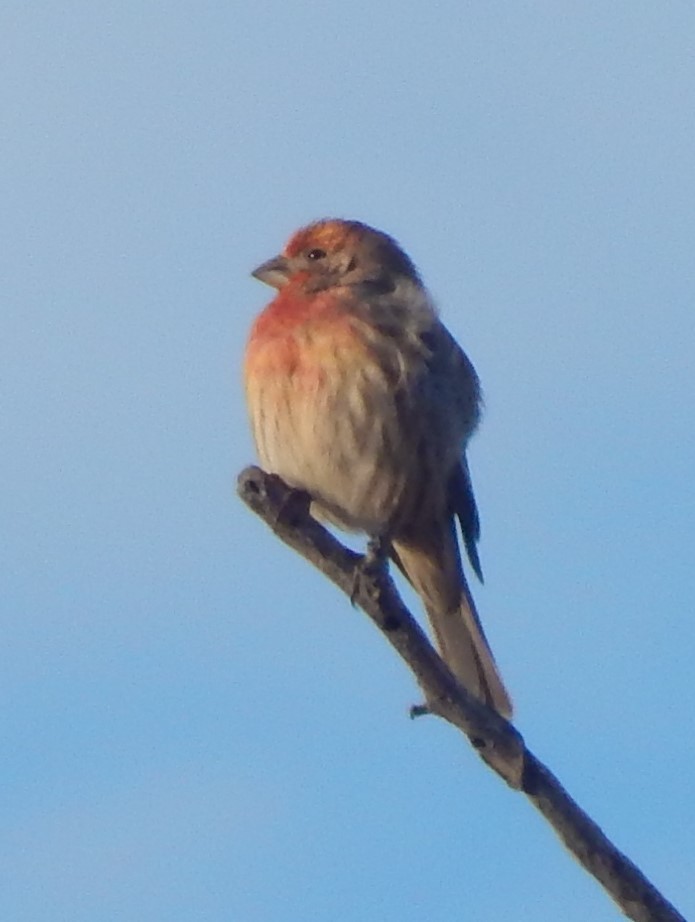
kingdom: Animalia
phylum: Chordata
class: Aves
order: Passeriformes
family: Fringillidae
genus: Haemorhous
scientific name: Haemorhous mexicanus
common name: House finch
